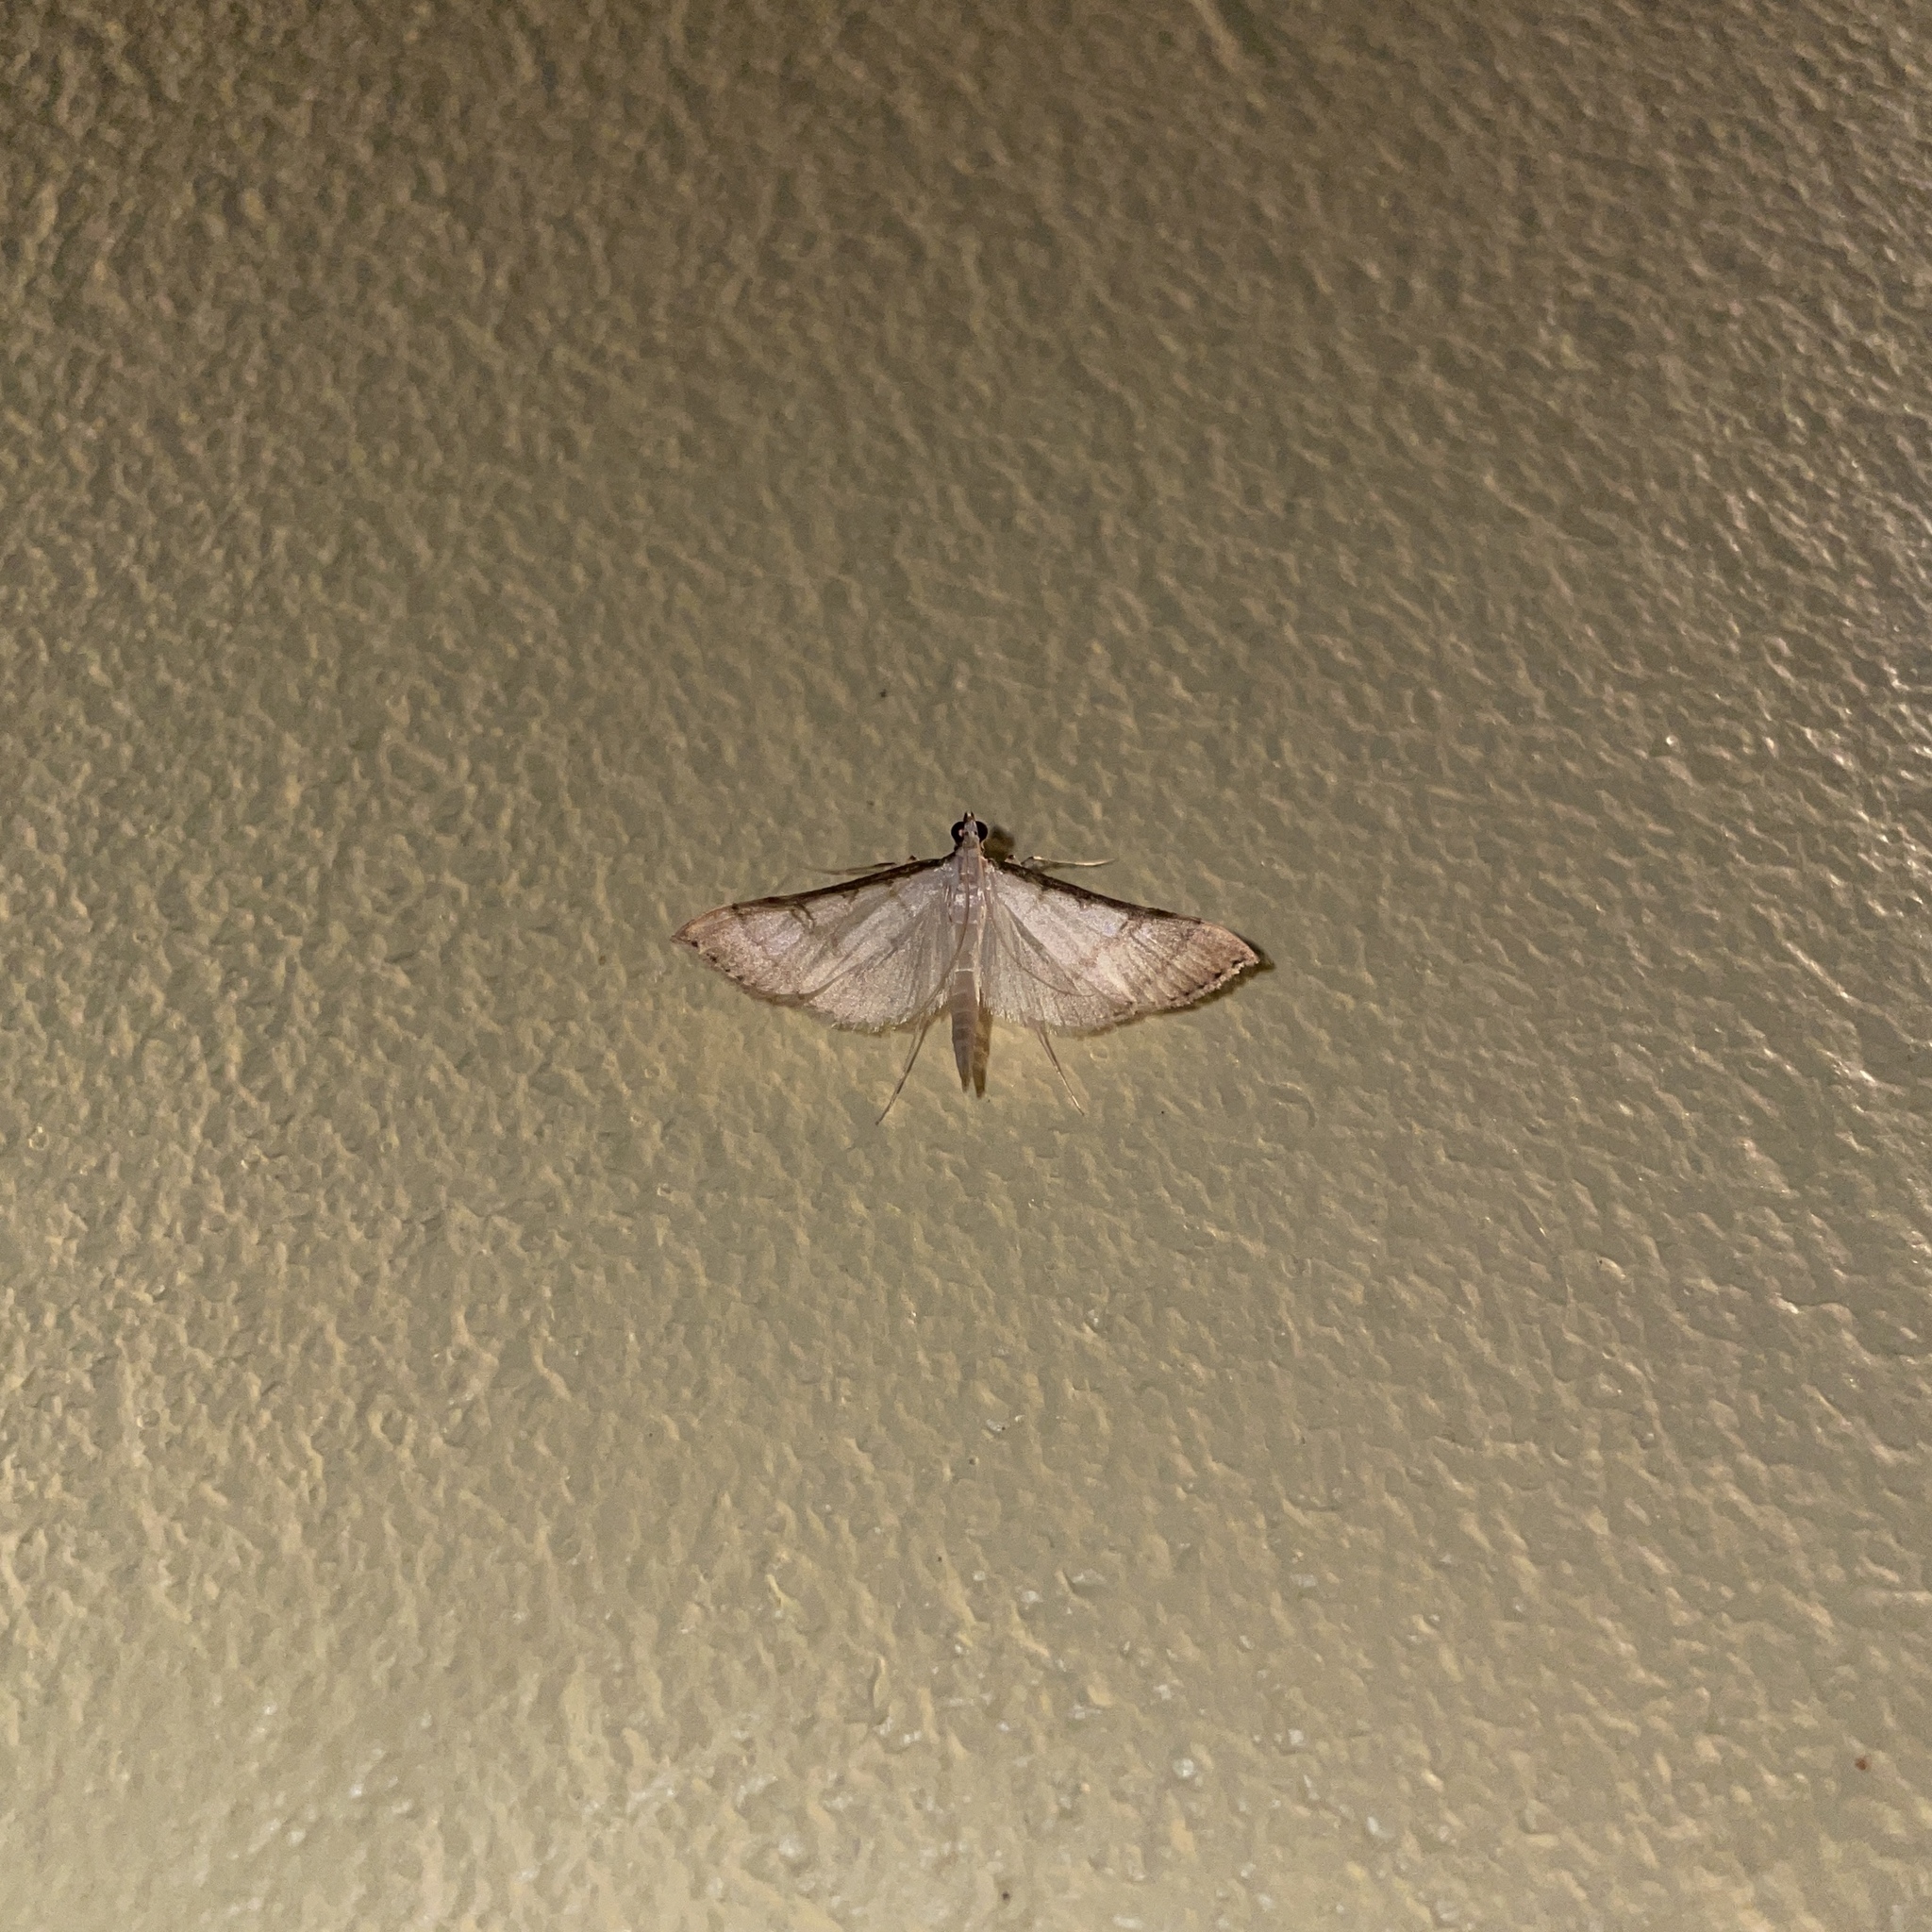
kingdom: Animalia
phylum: Arthropoda
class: Insecta
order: Lepidoptera
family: Crambidae
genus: Stenia
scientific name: Stenia colubralis
